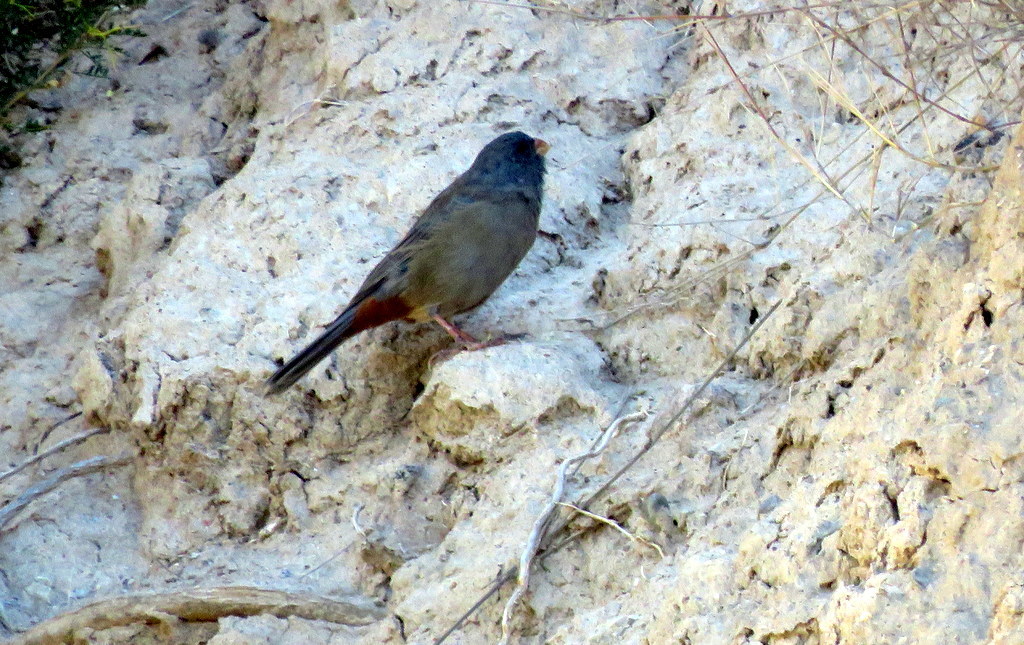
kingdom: Animalia
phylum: Chordata
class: Aves
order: Passeriformes
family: Thraupidae
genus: Catamenia
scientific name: Catamenia inornata
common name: Plain-colored seedeater
